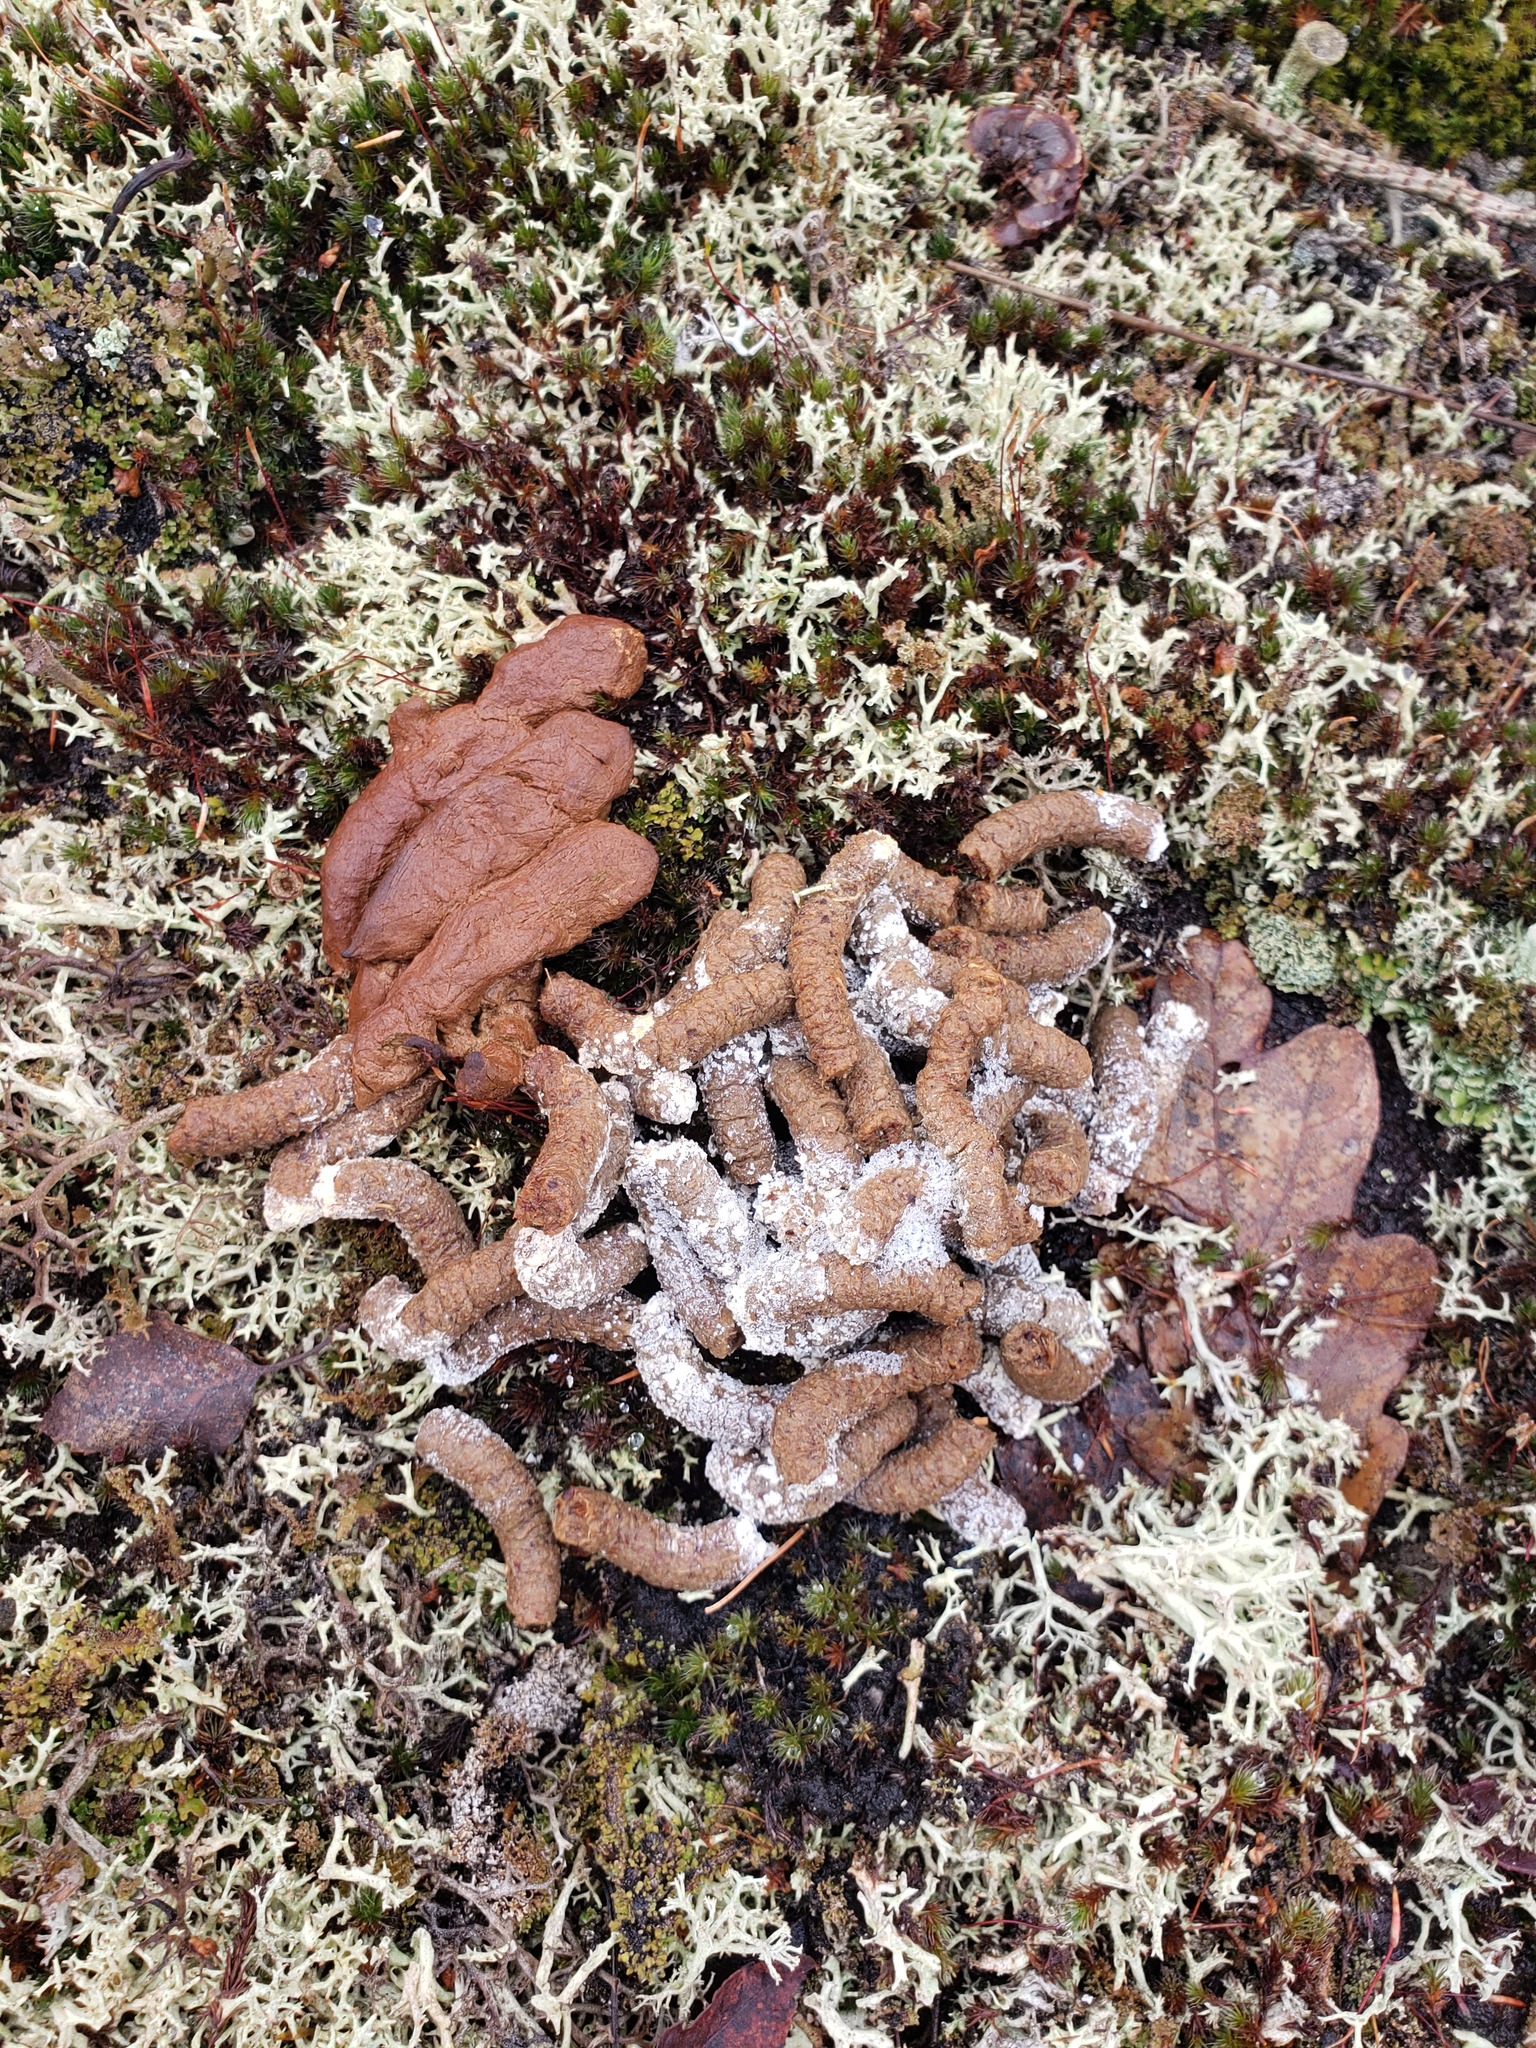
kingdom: Animalia
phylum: Chordata
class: Aves
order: Galliformes
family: Phasianidae
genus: Bonasa
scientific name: Bonasa umbellus
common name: Ruffed grouse
